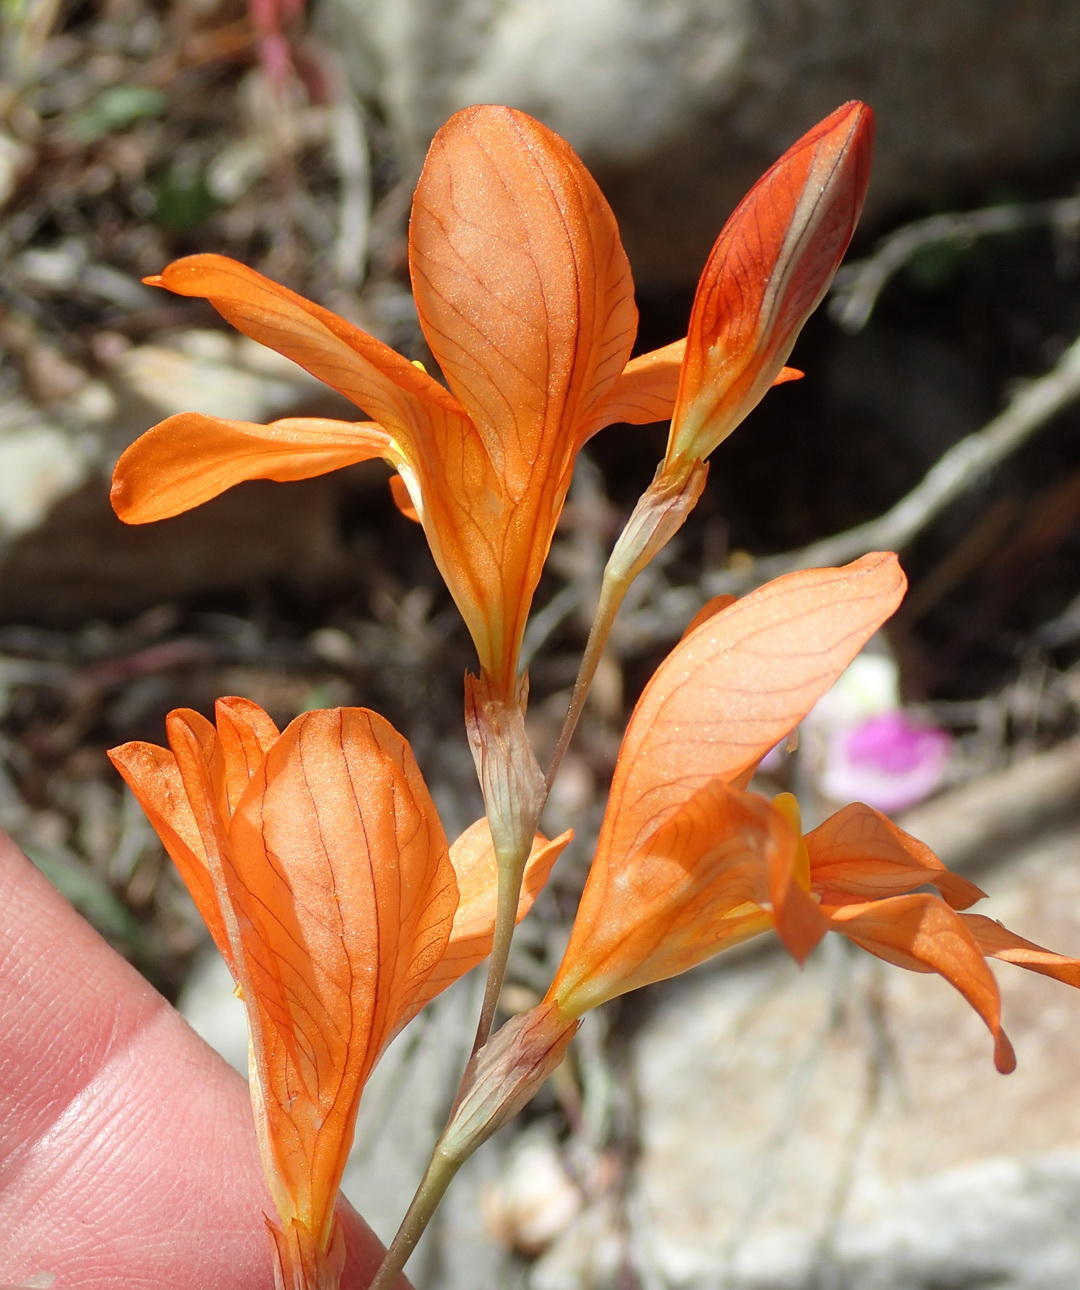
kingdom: Plantae
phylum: Tracheophyta
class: Liliopsida
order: Asparagales
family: Iridaceae
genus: Tritonia
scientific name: Tritonia securigera
